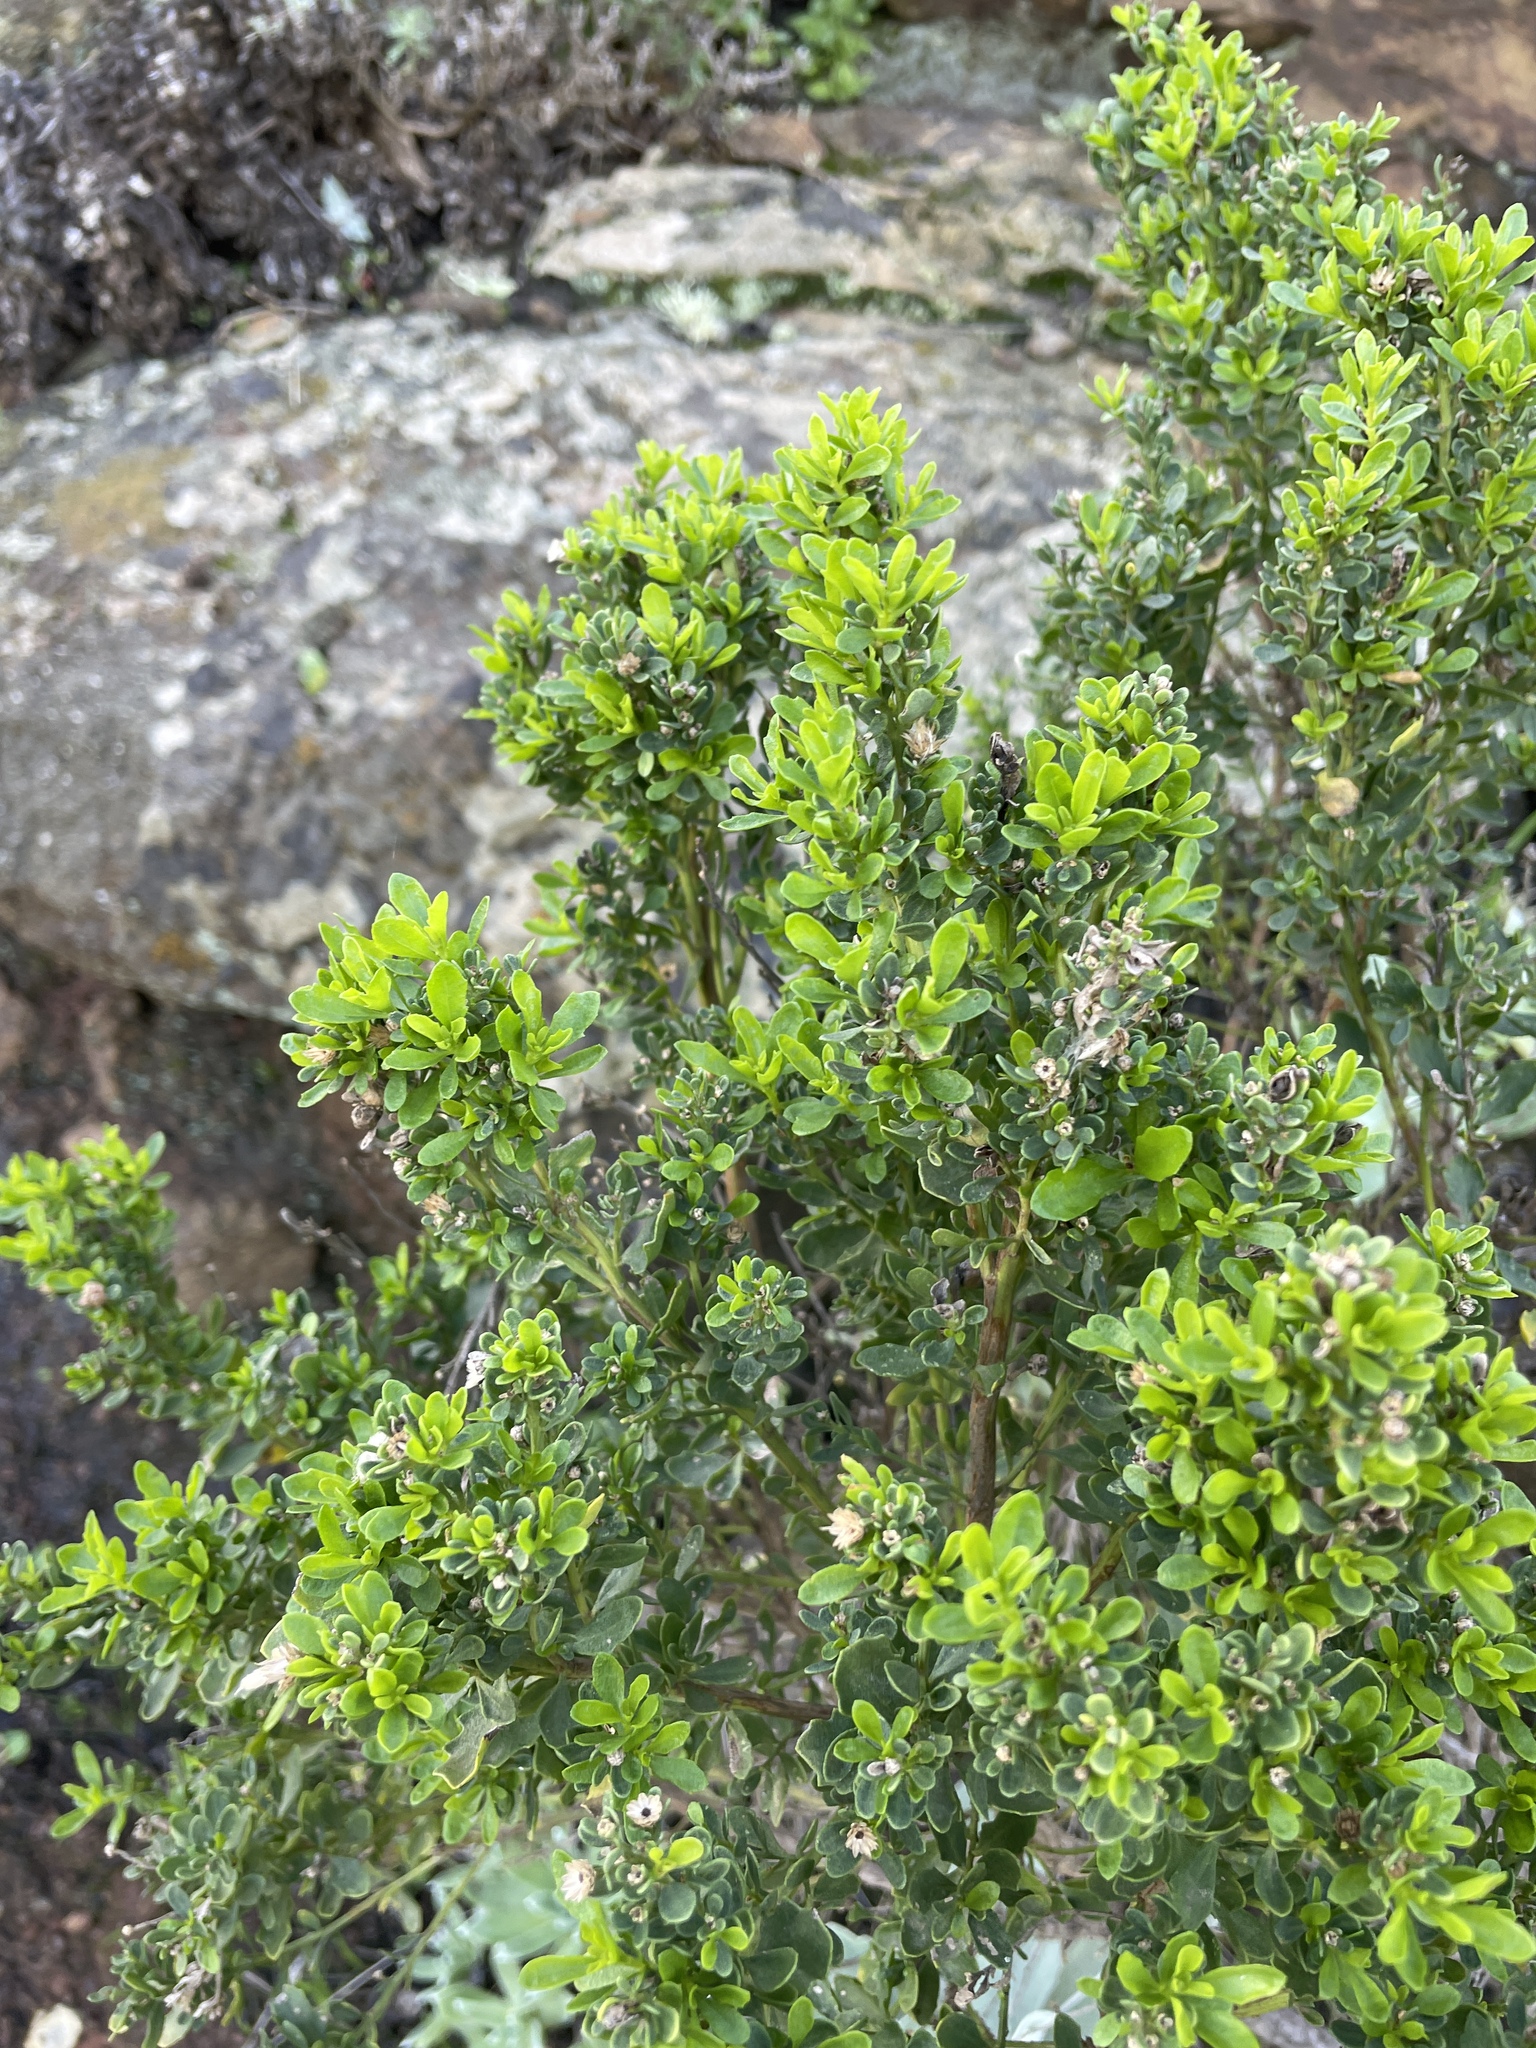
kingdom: Plantae
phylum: Tracheophyta
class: Magnoliopsida
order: Asterales
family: Asteraceae
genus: Baccharis
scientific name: Baccharis pilularis
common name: Coyotebrush
